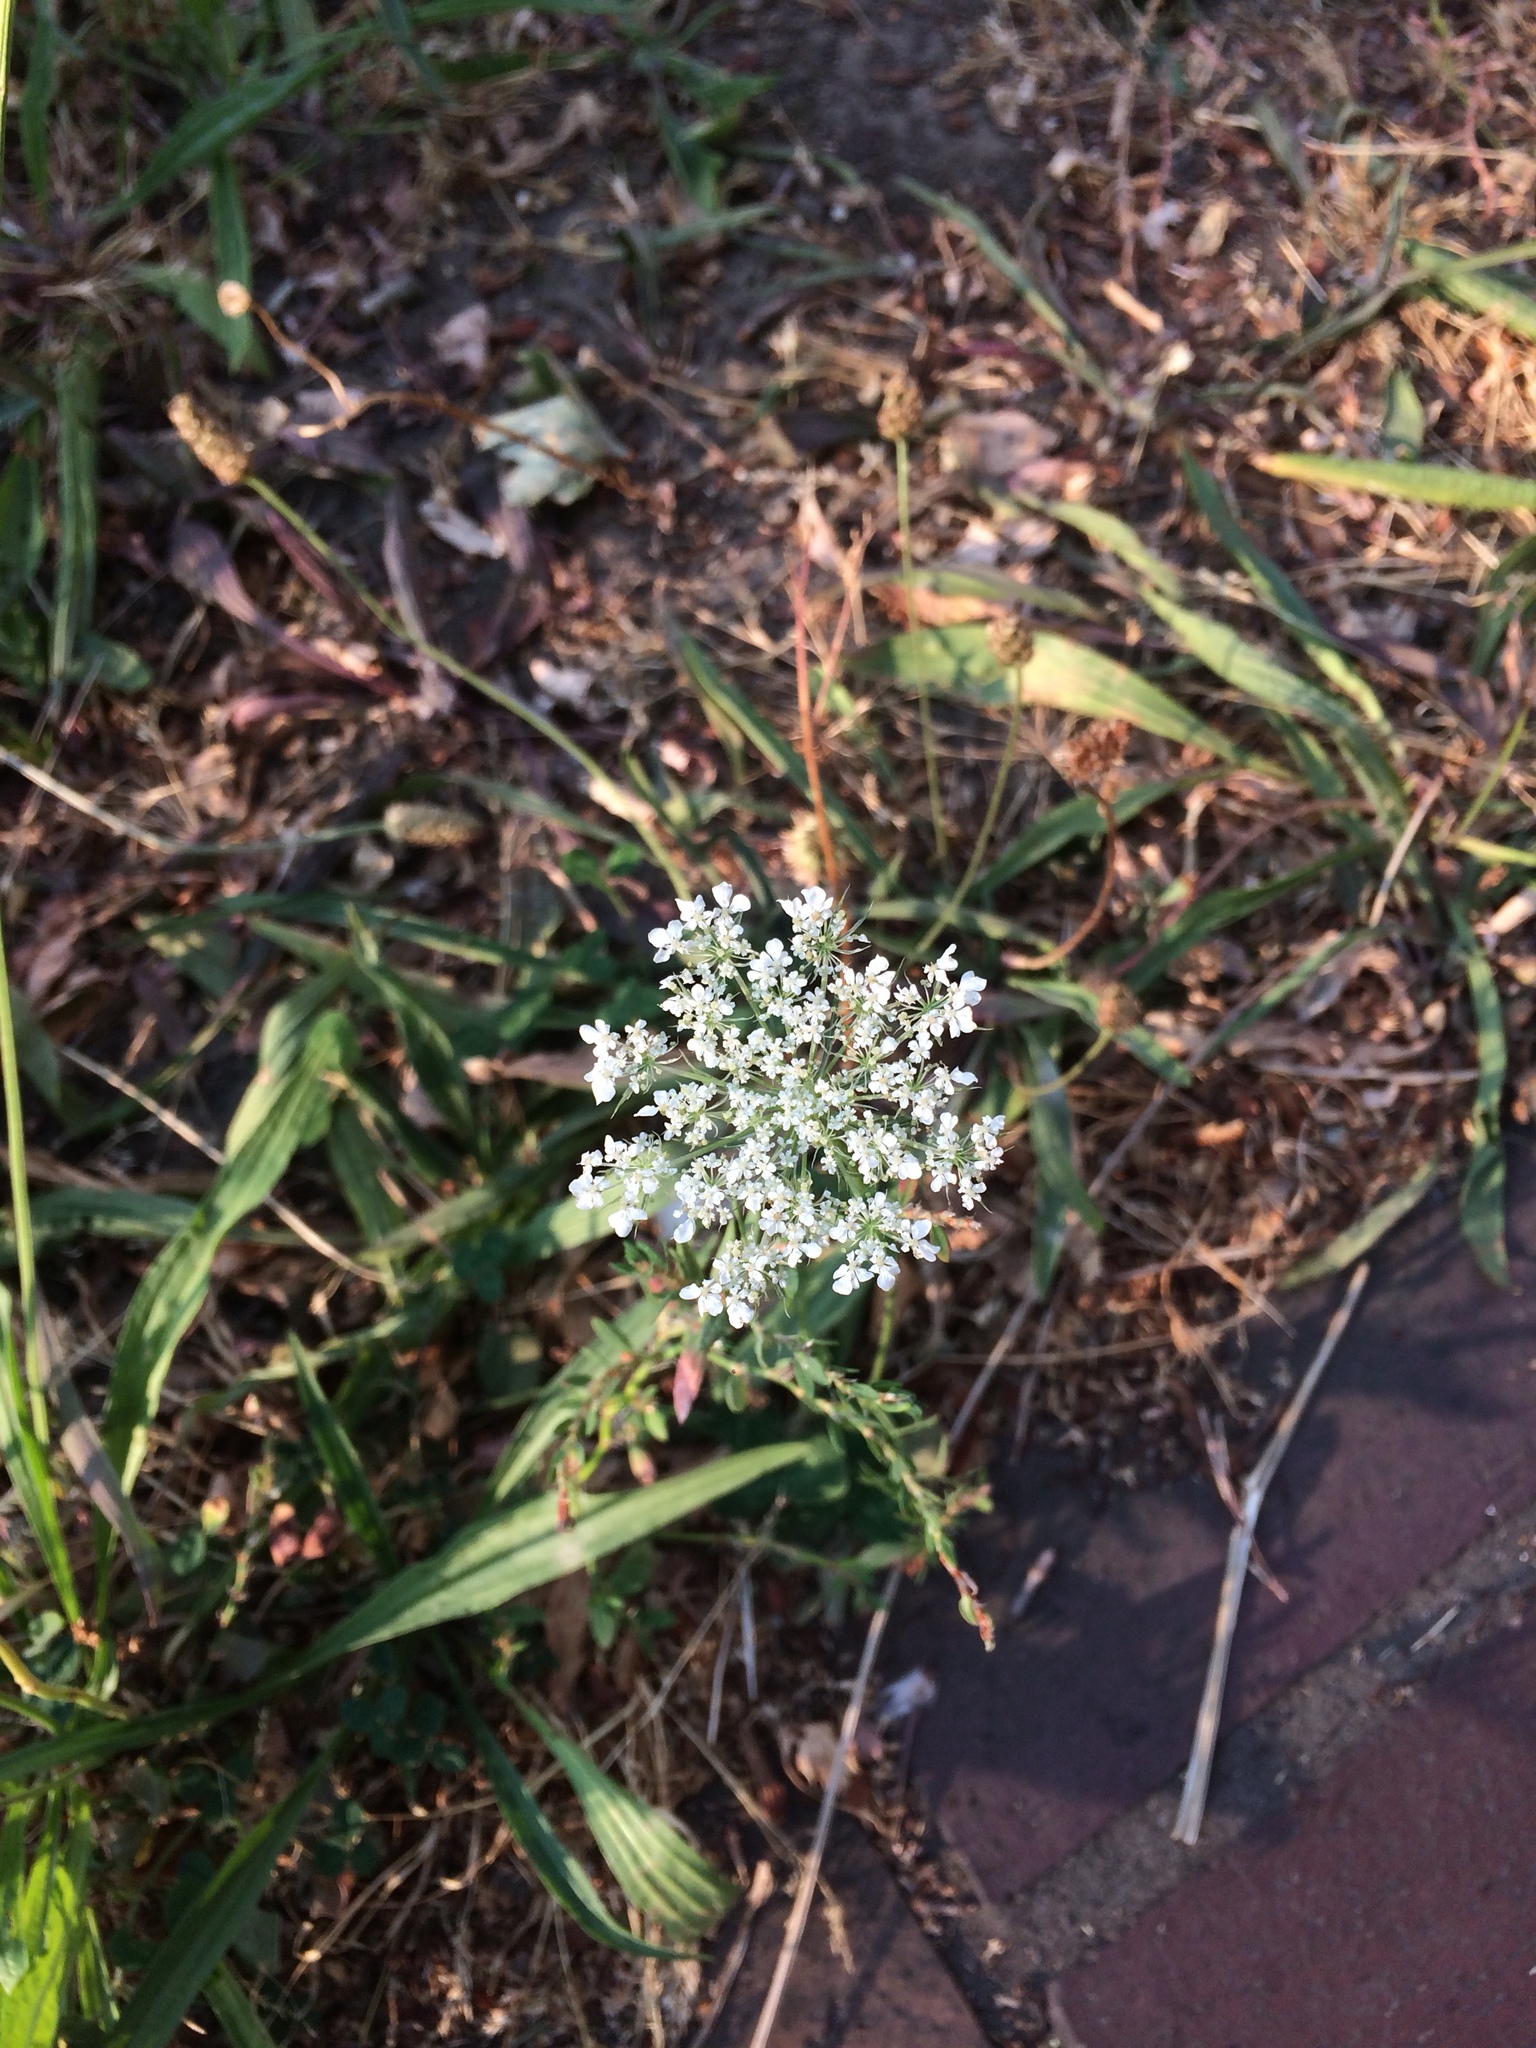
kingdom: Plantae
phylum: Tracheophyta
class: Magnoliopsida
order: Apiales
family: Apiaceae
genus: Daucus
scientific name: Daucus carota
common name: Wild carrot
